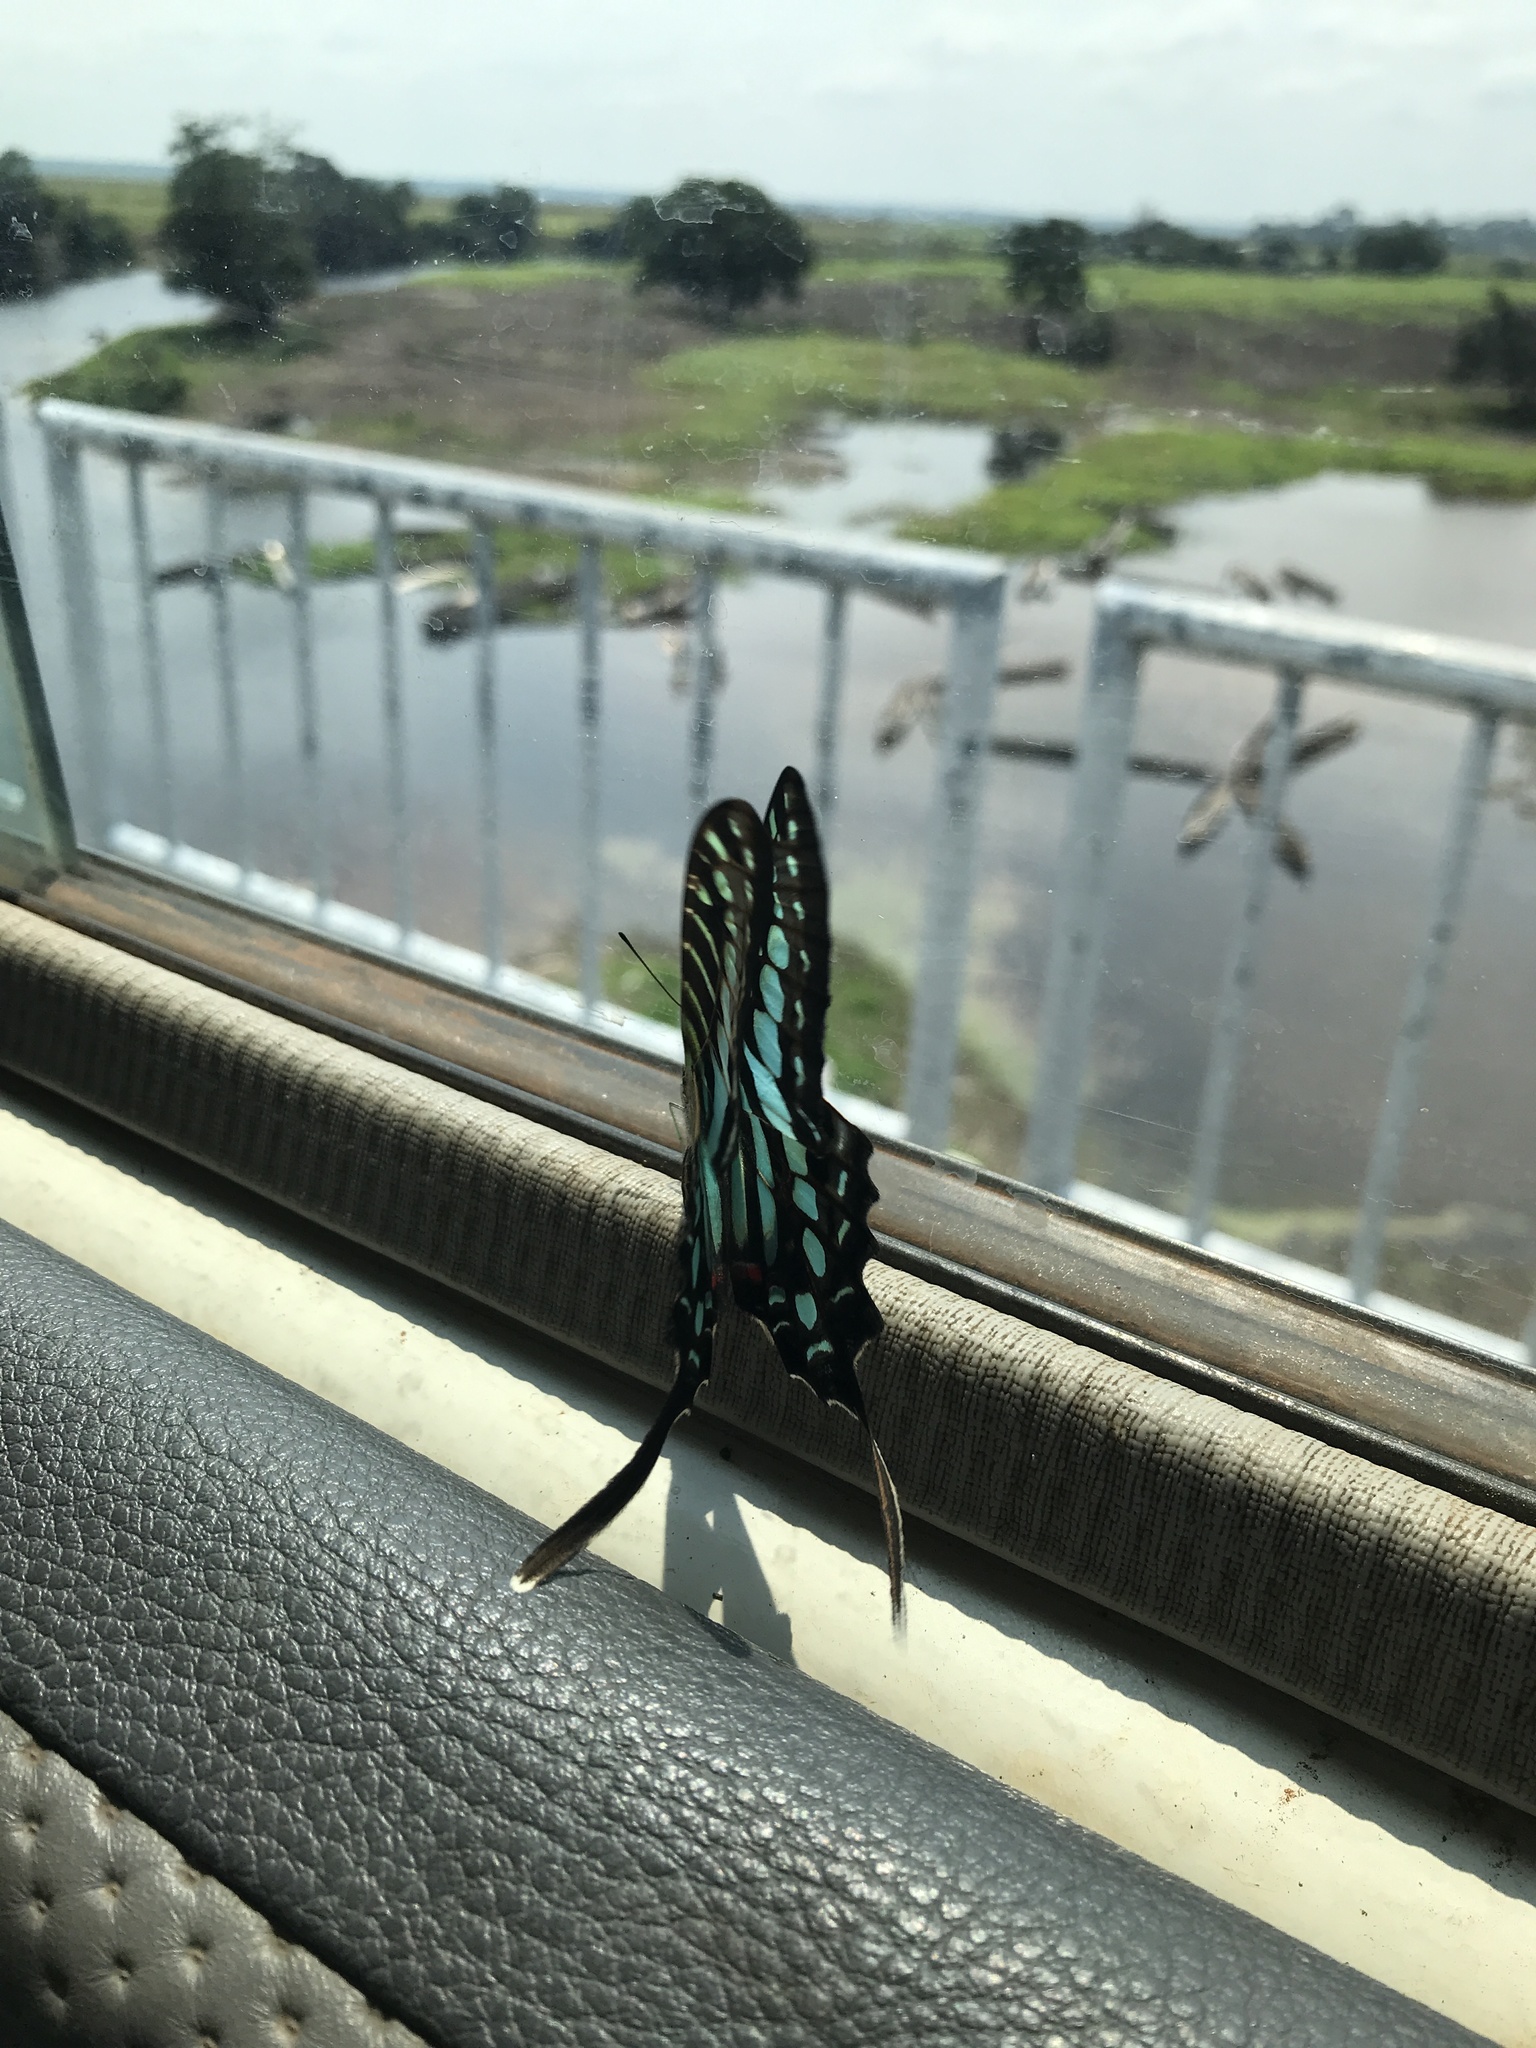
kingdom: Animalia
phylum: Arthropoda
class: Insecta
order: Lepidoptera
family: Papilionidae
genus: Graphium
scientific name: Graphium policenes
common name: Common swordtail
